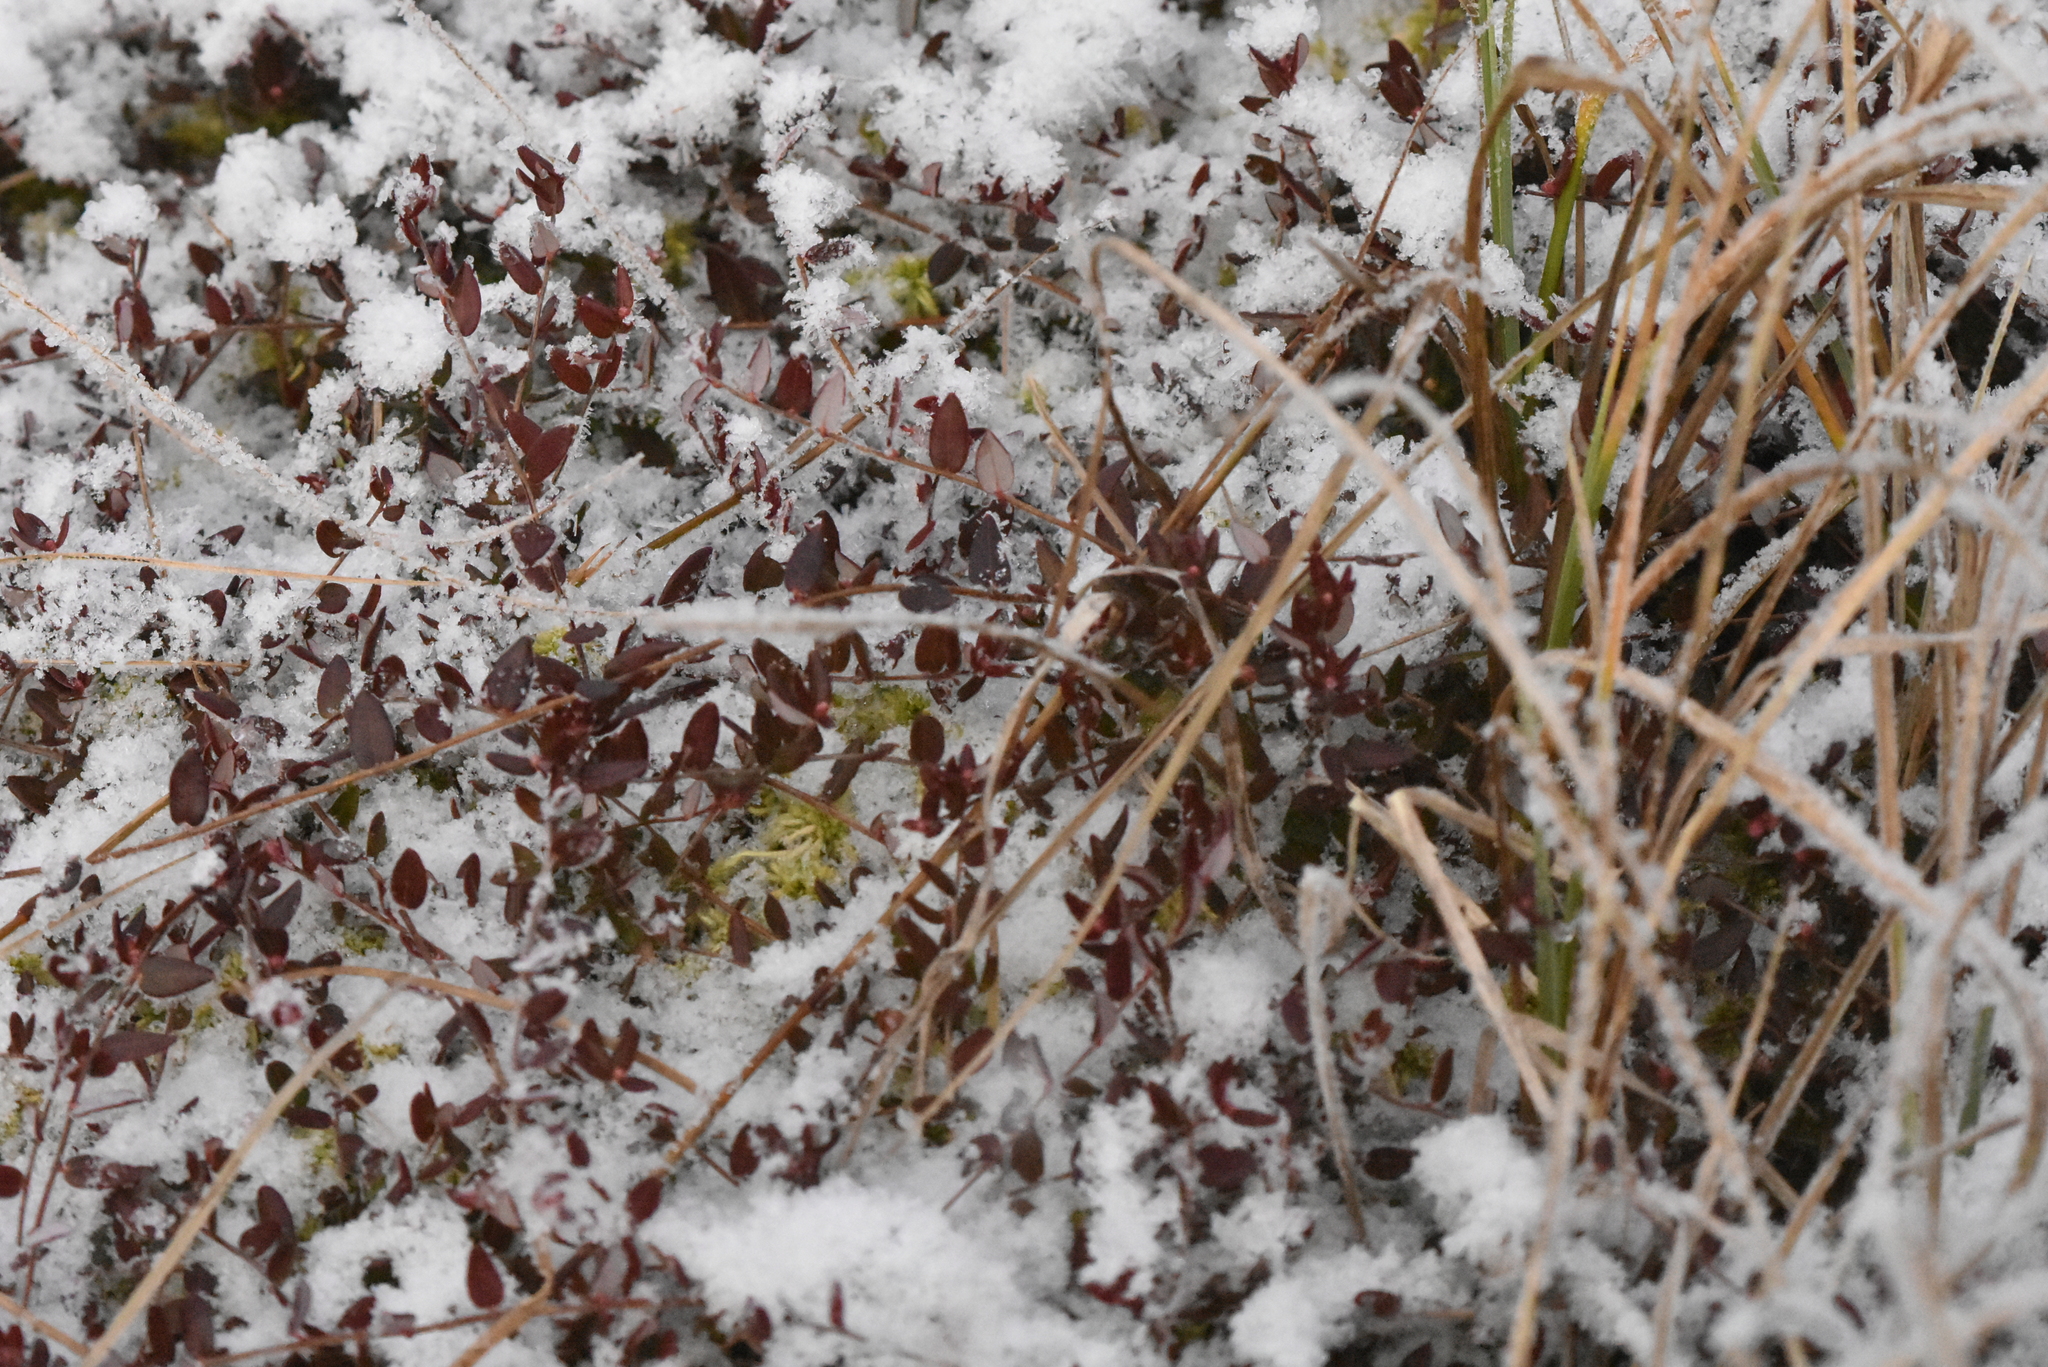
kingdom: Plantae
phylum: Tracheophyta
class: Magnoliopsida
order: Ericales
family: Ericaceae
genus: Vaccinium
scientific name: Vaccinium oxycoccos
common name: Cranberry
